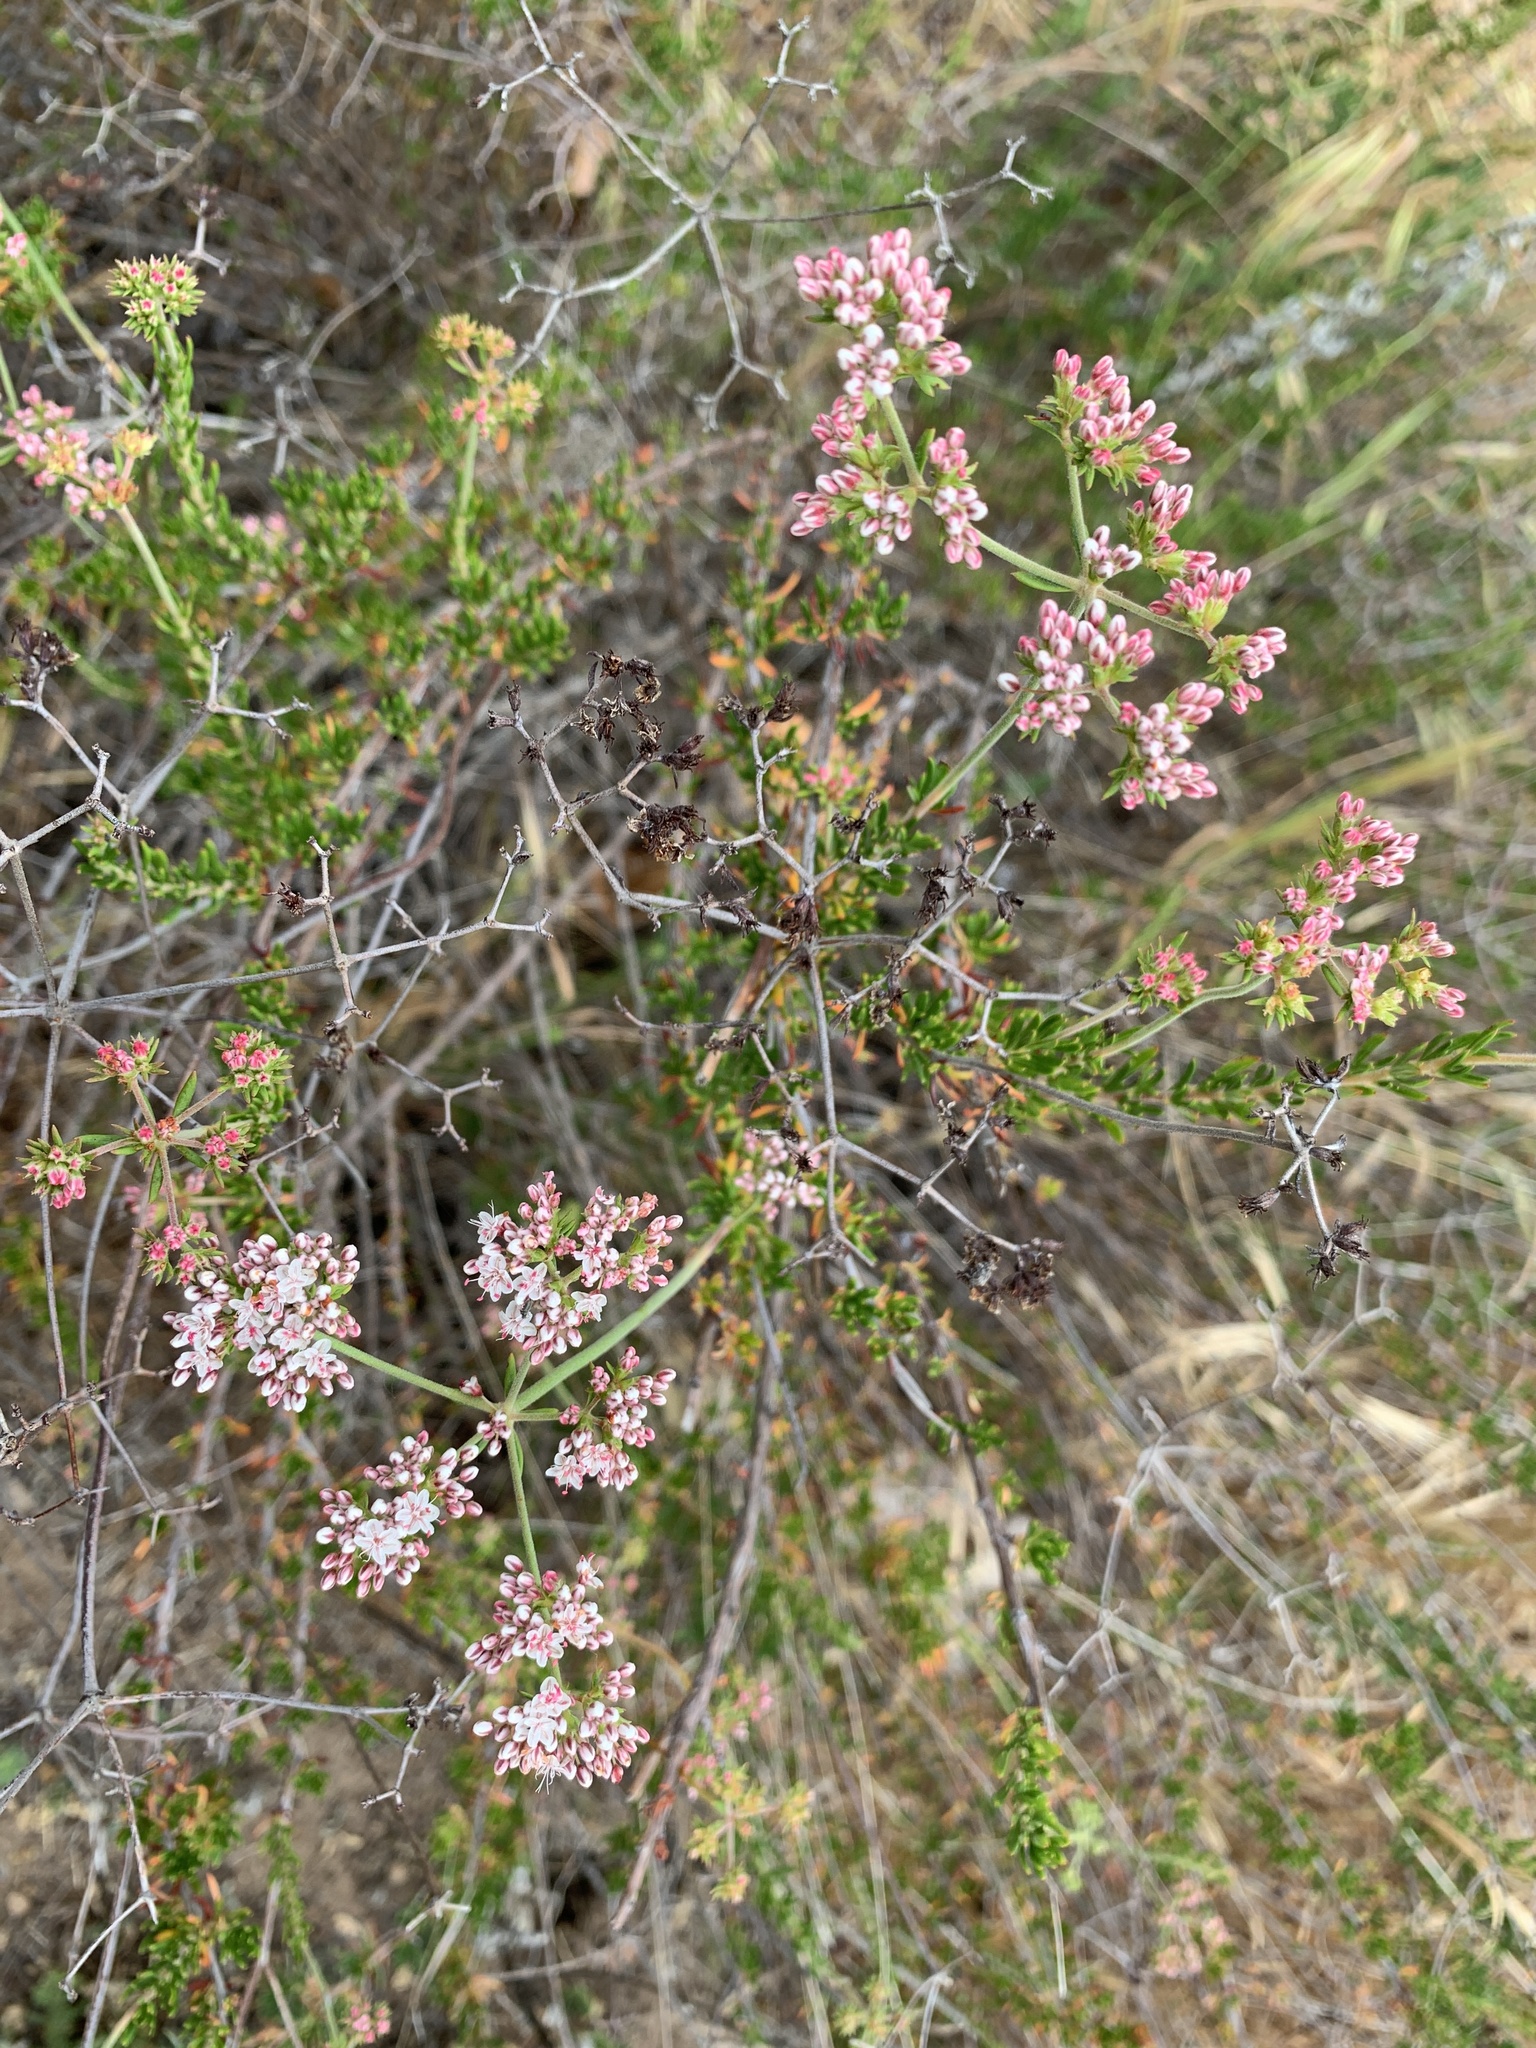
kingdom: Plantae
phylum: Tracheophyta
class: Magnoliopsida
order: Caryophyllales
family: Polygonaceae
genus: Eriogonum
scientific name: Eriogonum fasciculatum
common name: California wild buckwheat
